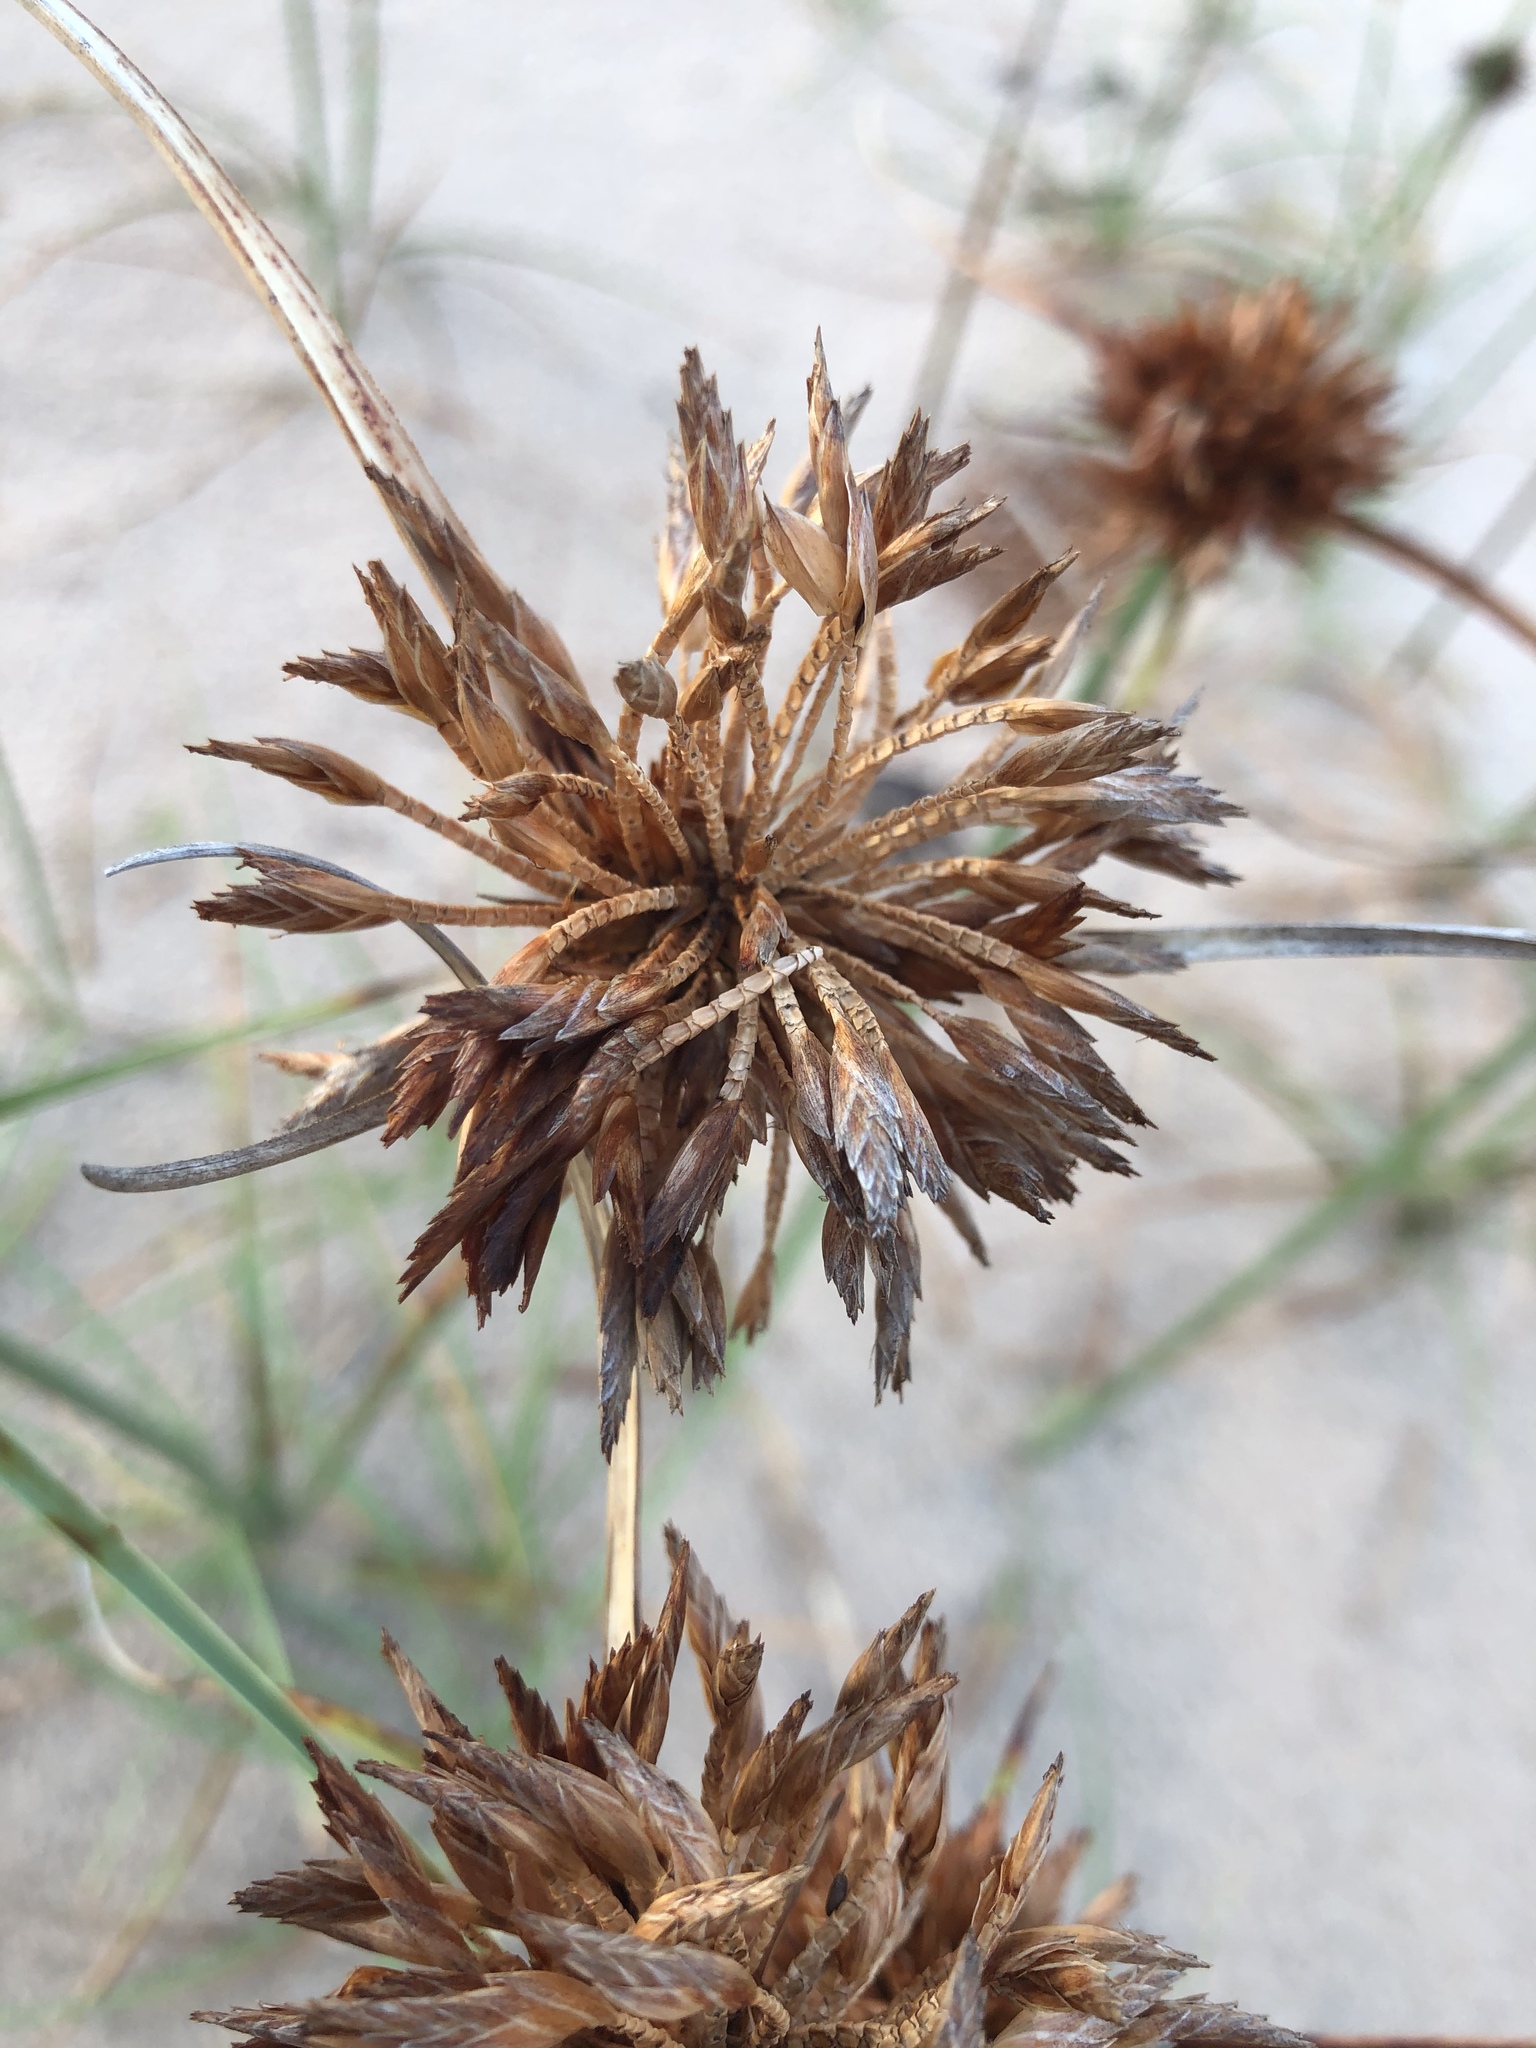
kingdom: Plantae
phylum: Tracheophyta
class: Liliopsida
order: Poales
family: Cyperaceae
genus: Cyperus
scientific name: Cyperus crassipes
